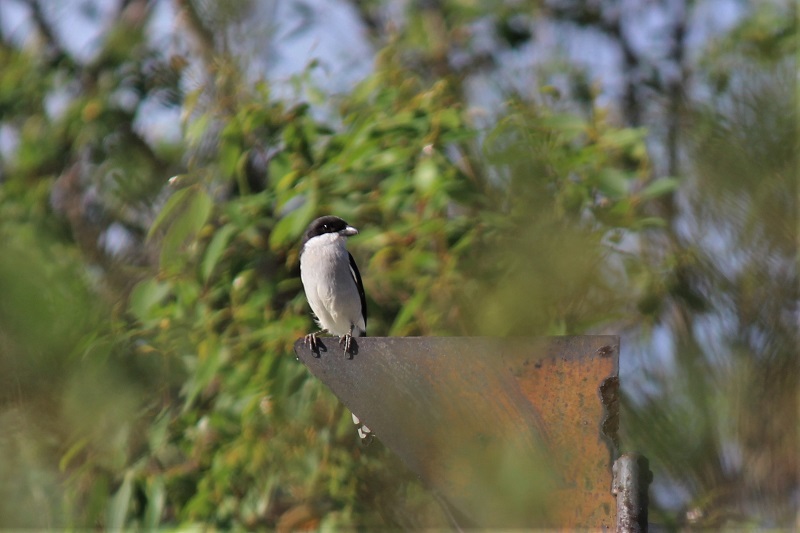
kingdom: Animalia
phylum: Chordata
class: Aves
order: Passeriformes
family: Laniidae
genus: Lanius
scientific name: Lanius collaris
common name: Southern fiscal
